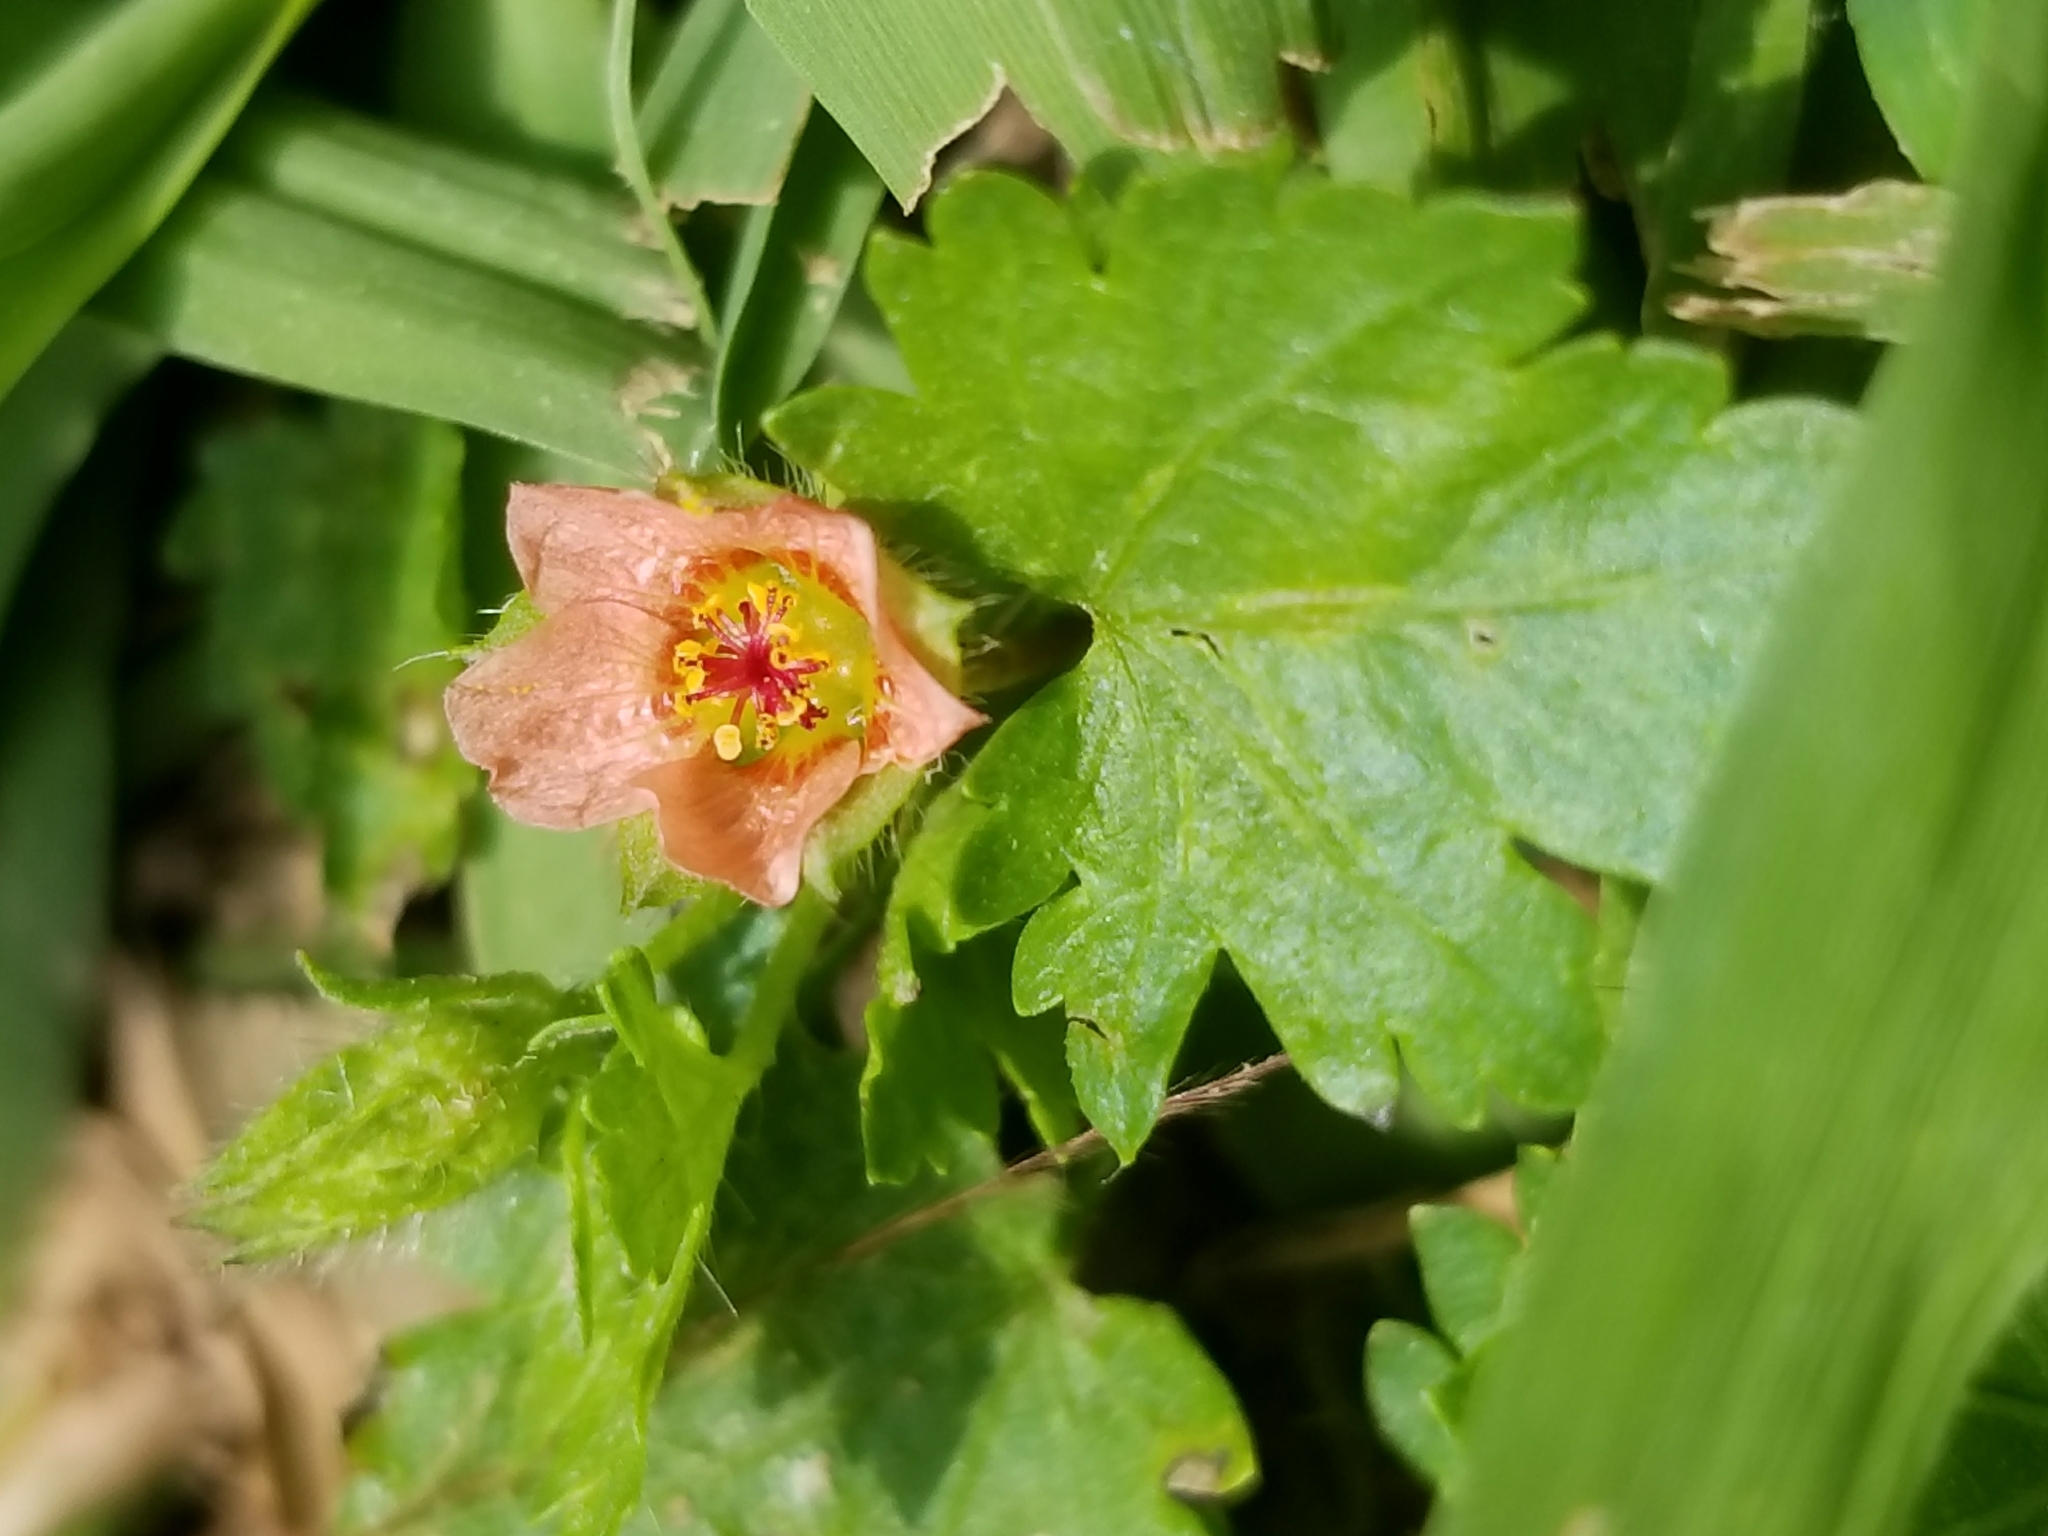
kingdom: Plantae
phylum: Tracheophyta
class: Magnoliopsida
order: Malvales
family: Malvaceae
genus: Modiola
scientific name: Modiola caroliniana
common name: Carolina bristlemallow
